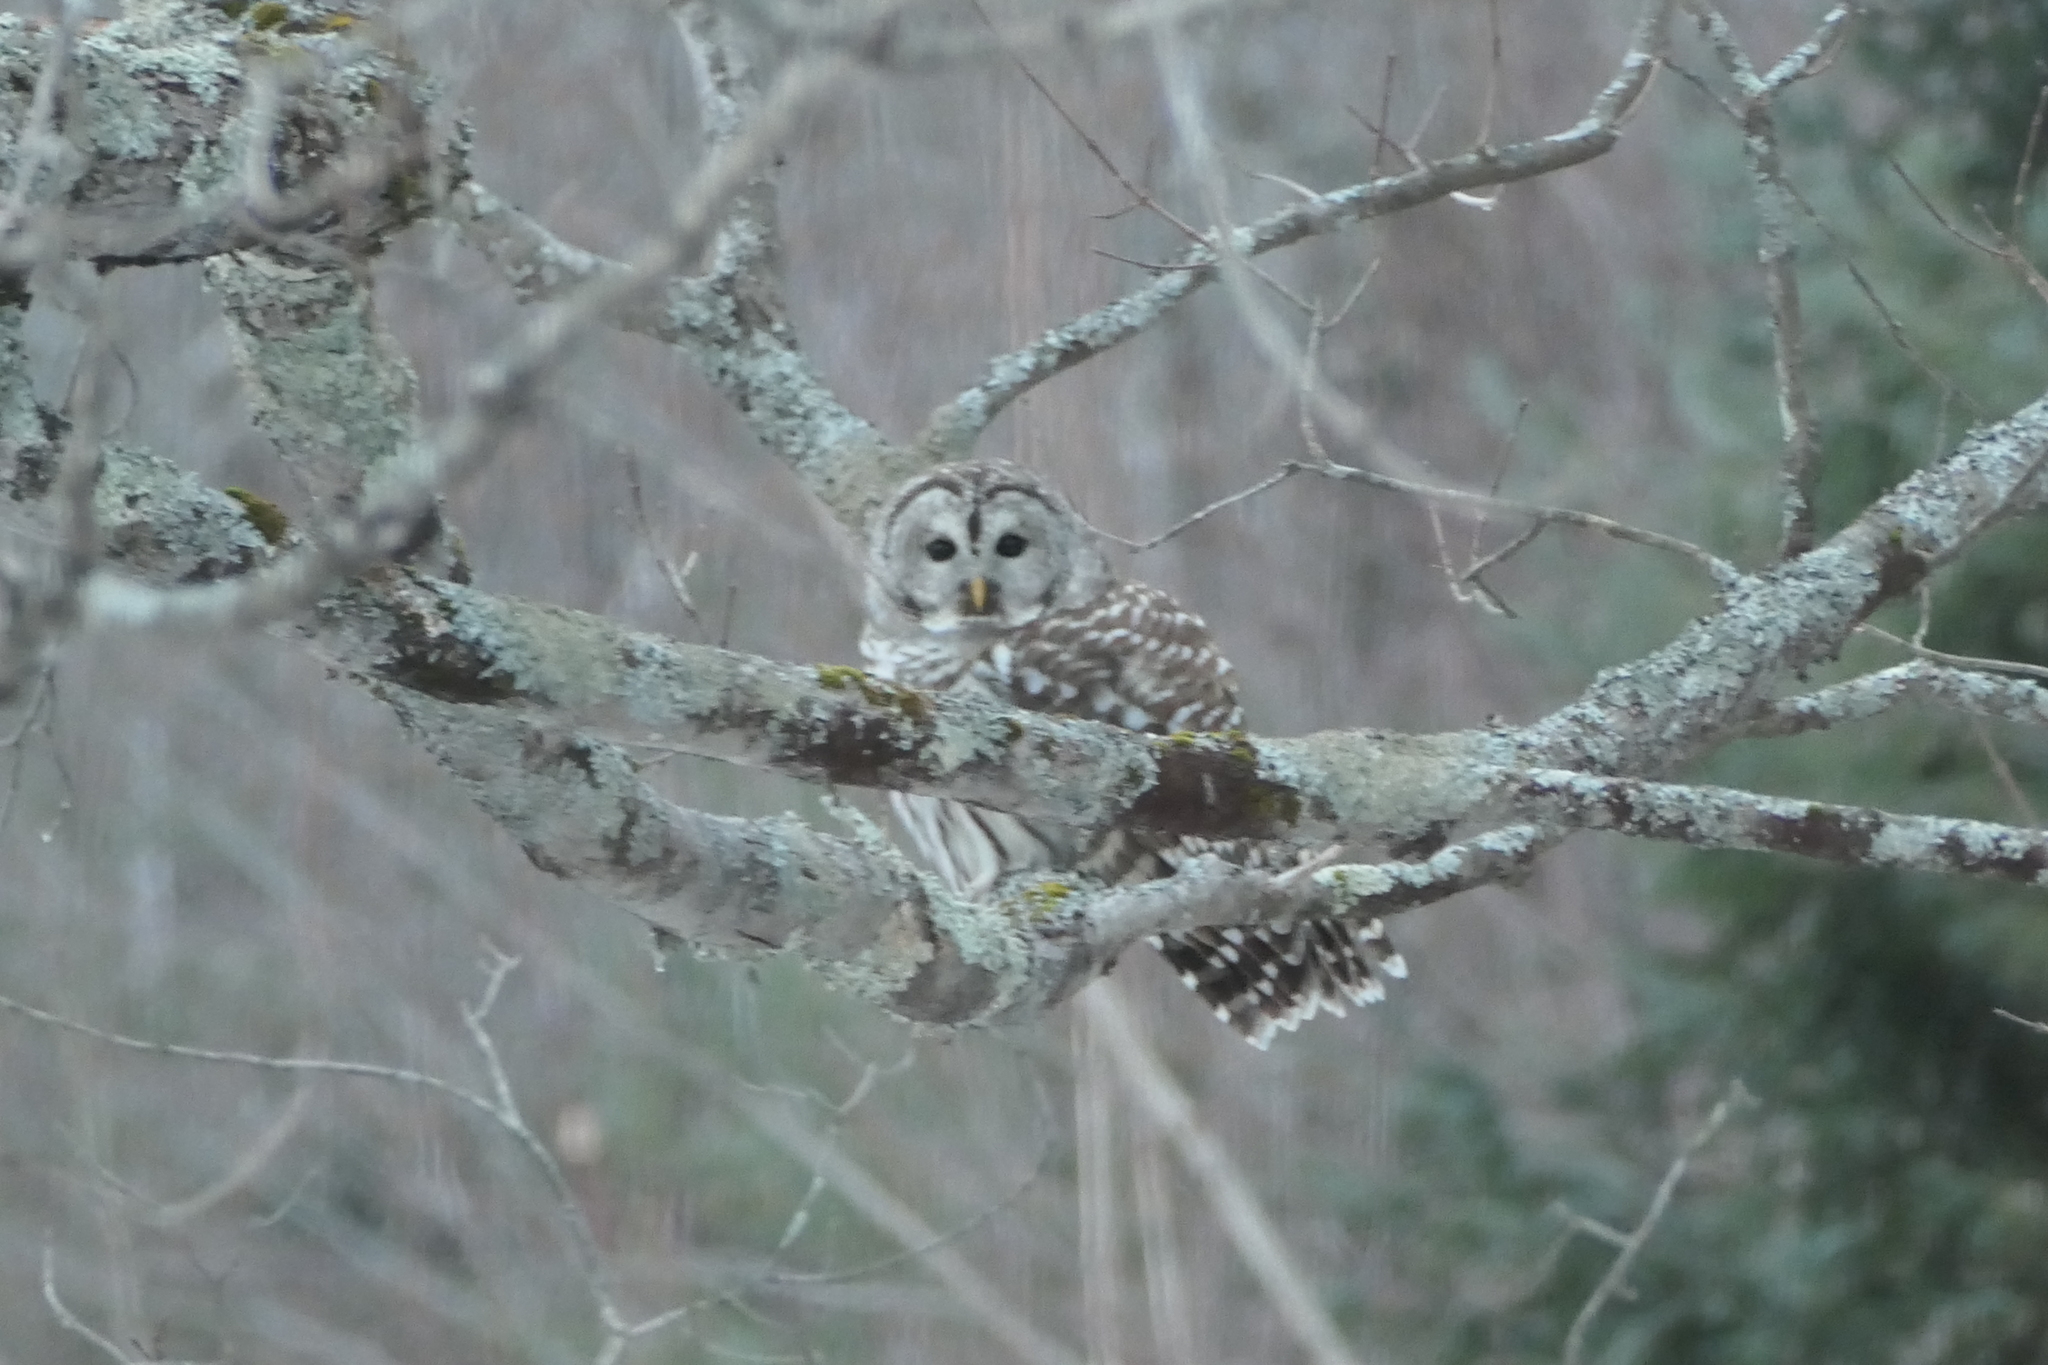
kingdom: Animalia
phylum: Chordata
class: Aves
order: Strigiformes
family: Strigidae
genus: Strix
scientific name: Strix varia
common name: Barred owl
